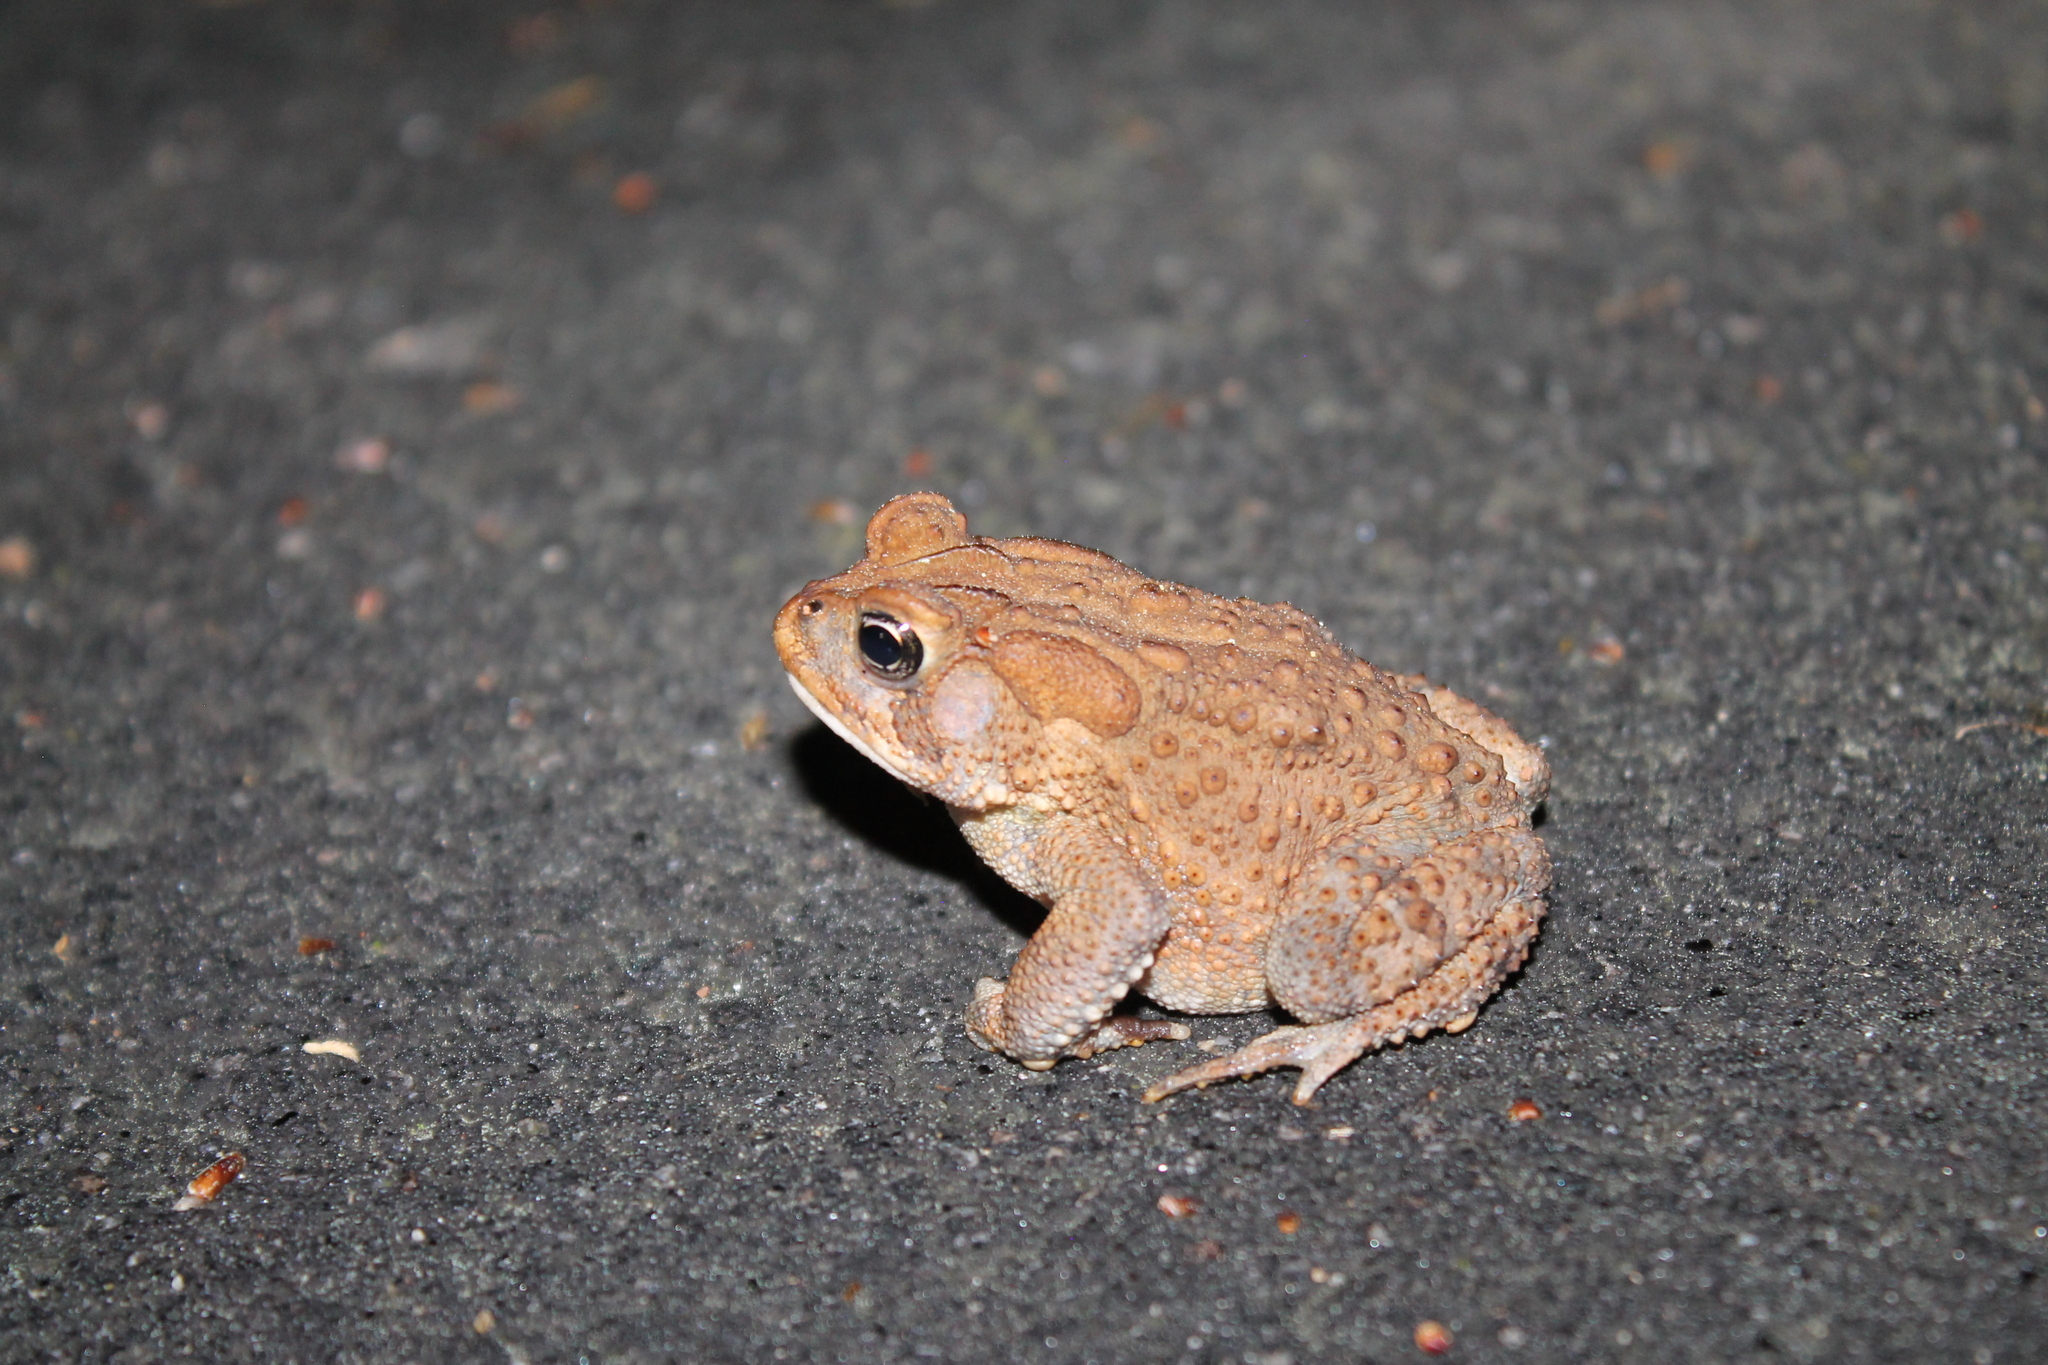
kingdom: Animalia
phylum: Chordata
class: Amphibia
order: Anura
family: Bufonidae
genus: Anaxyrus
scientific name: Anaxyrus terrestris
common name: Southern toad
